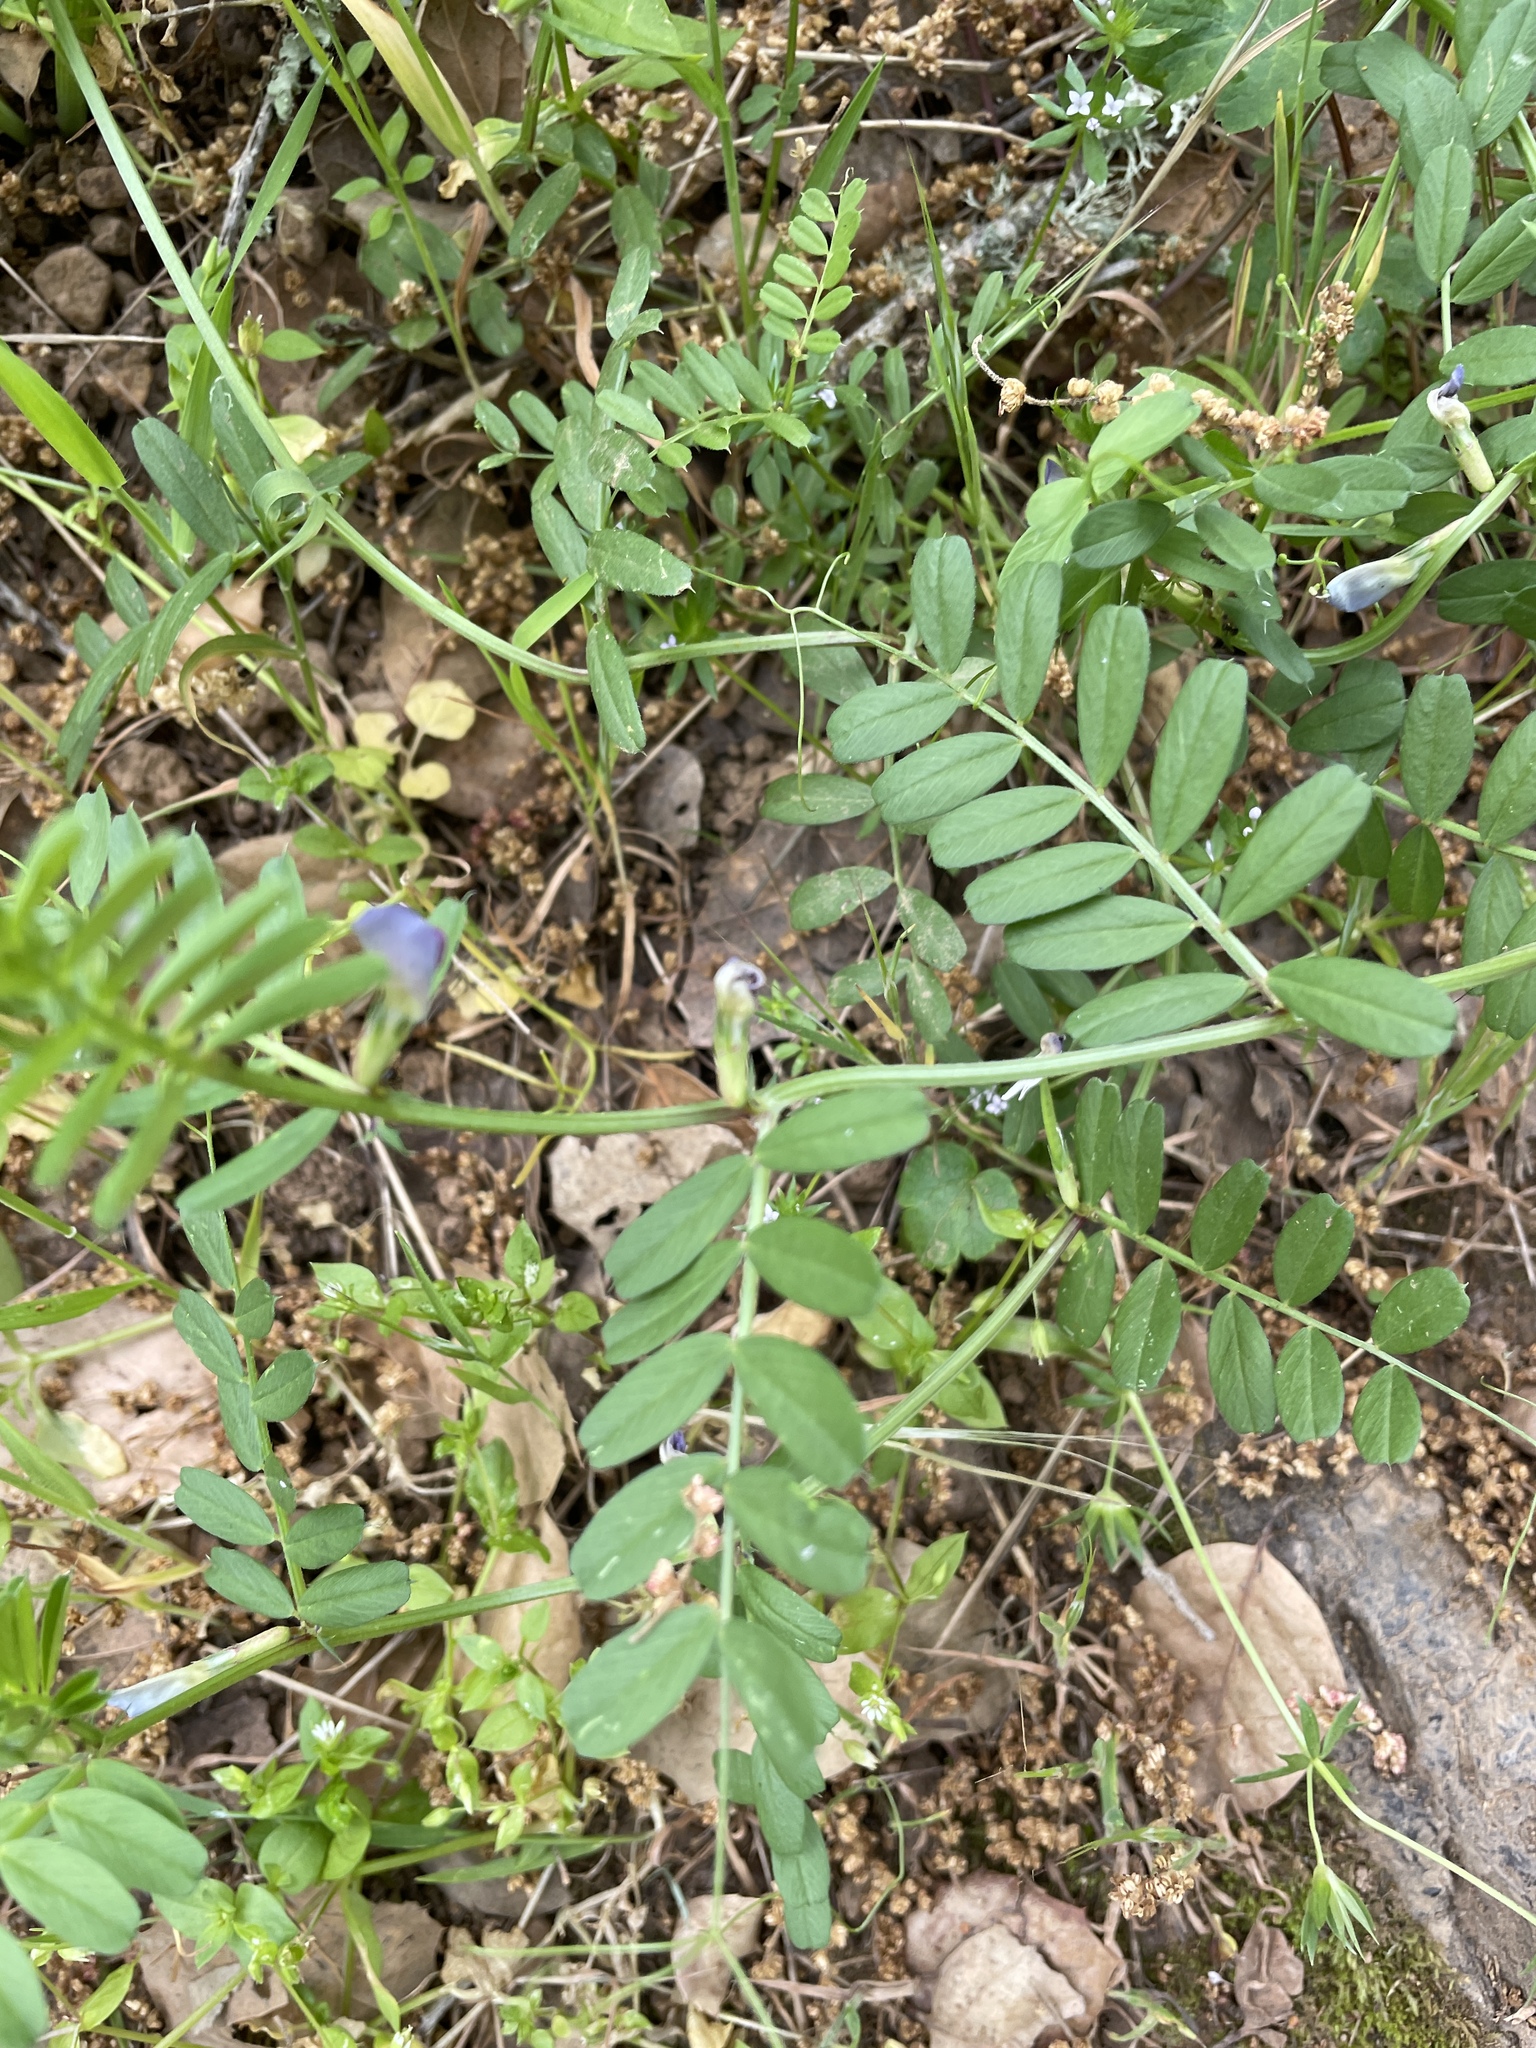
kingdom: Plantae
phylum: Tracheophyta
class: Magnoliopsida
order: Fabales
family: Fabaceae
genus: Vicia
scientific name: Vicia sativa
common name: Garden vetch
